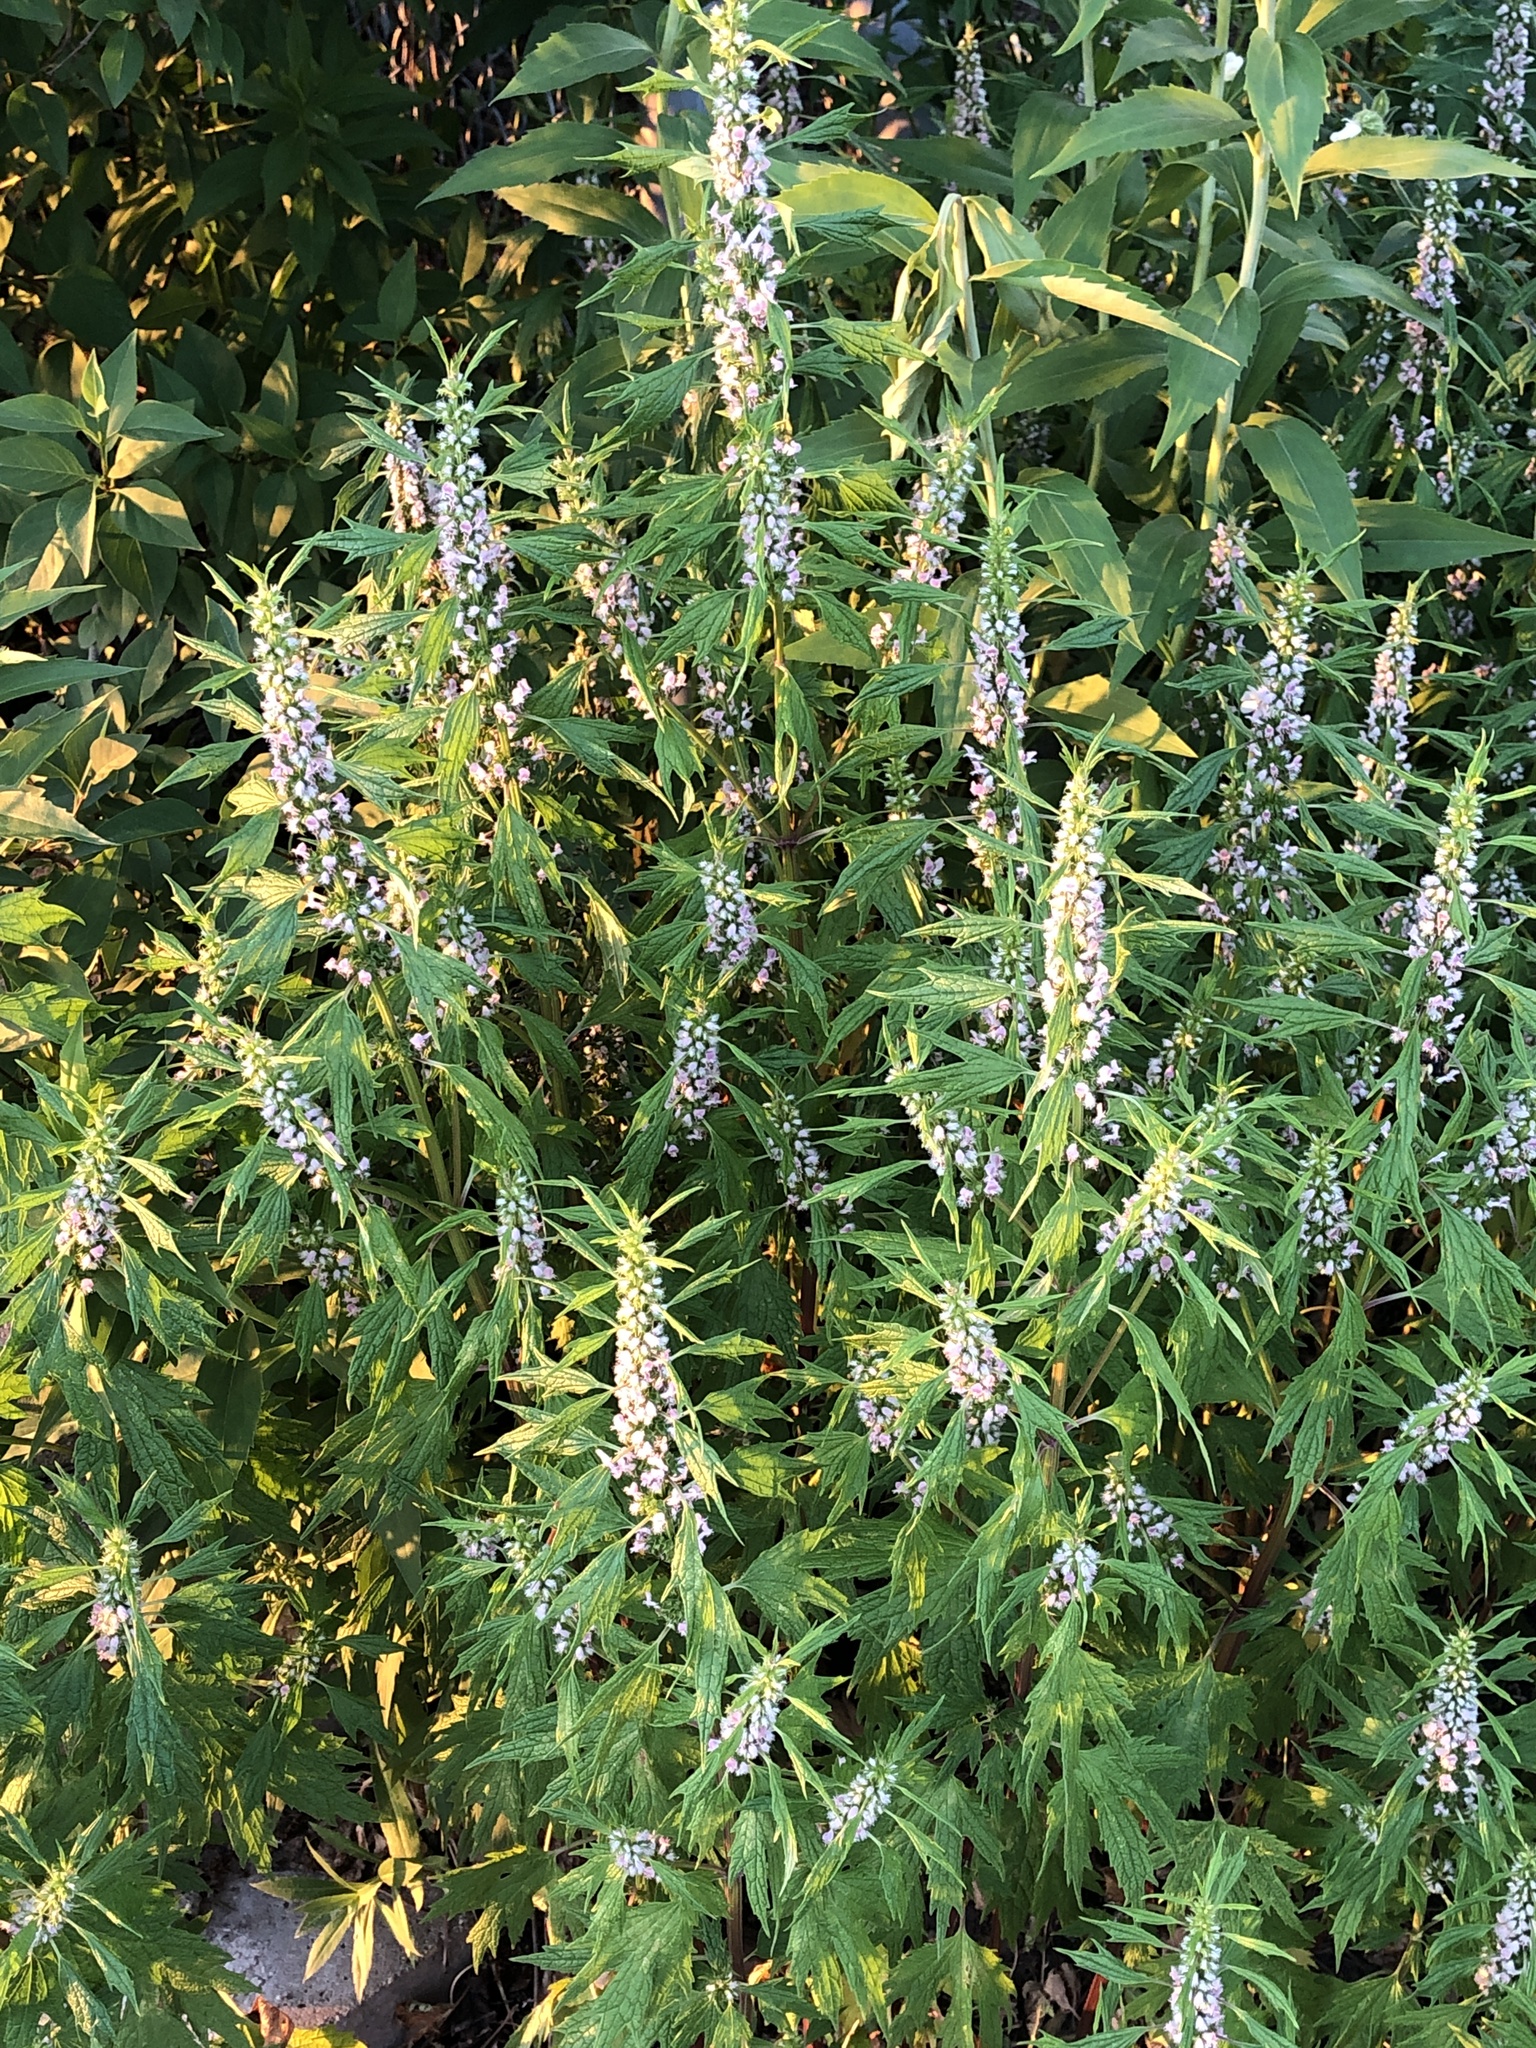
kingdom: Plantae
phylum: Tracheophyta
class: Magnoliopsida
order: Lamiales
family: Lamiaceae
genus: Leonurus
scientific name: Leonurus cardiaca
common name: Motherwort
